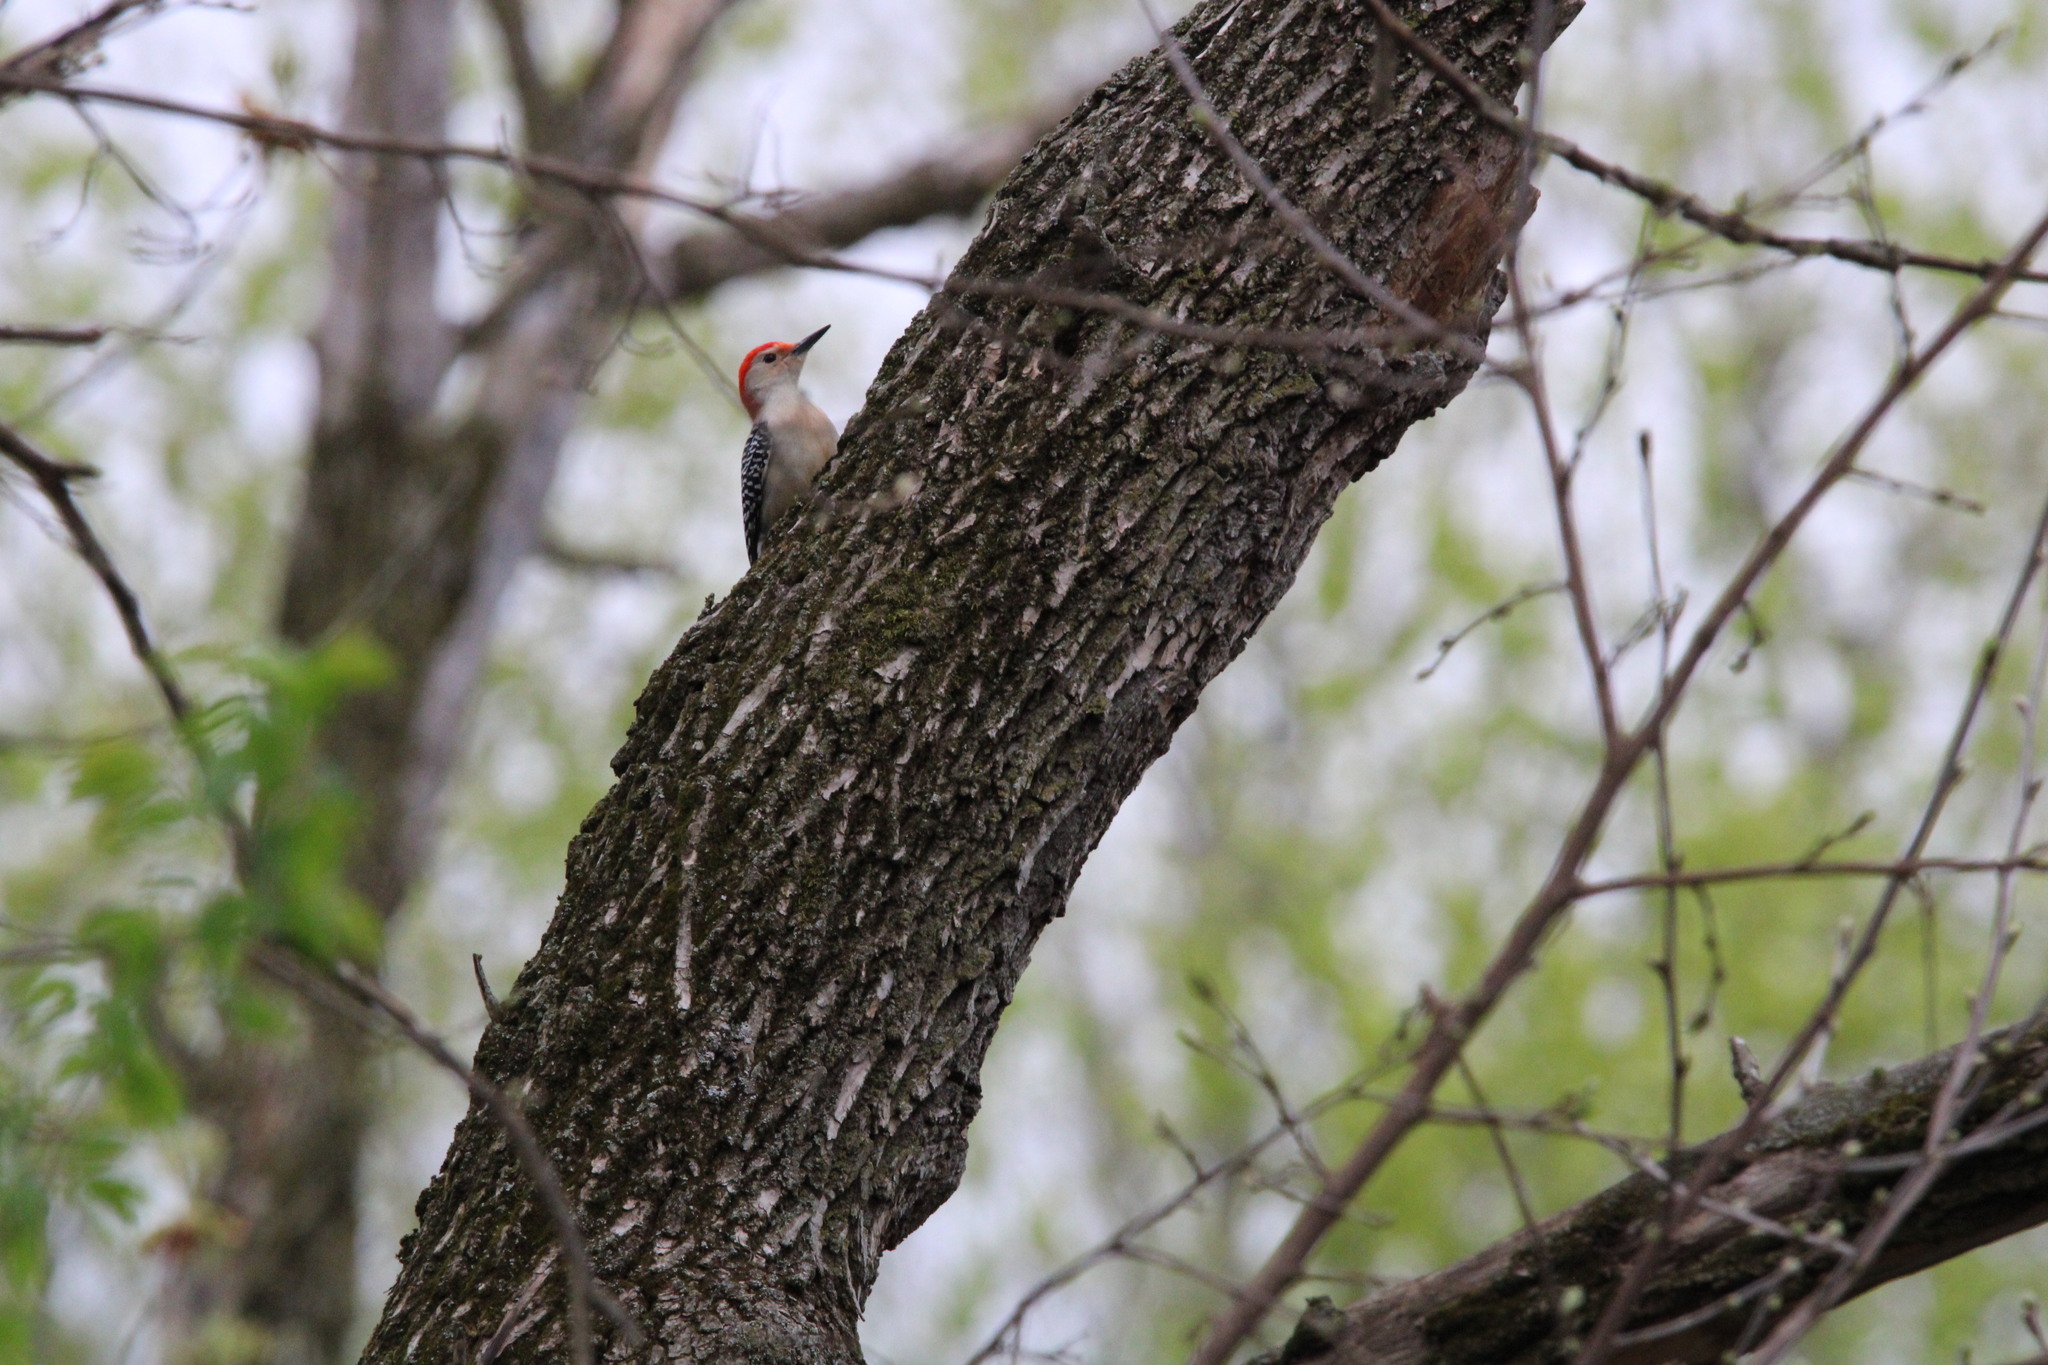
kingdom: Animalia
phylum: Chordata
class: Aves
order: Piciformes
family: Picidae
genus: Melanerpes
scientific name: Melanerpes carolinus
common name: Red-bellied woodpecker
